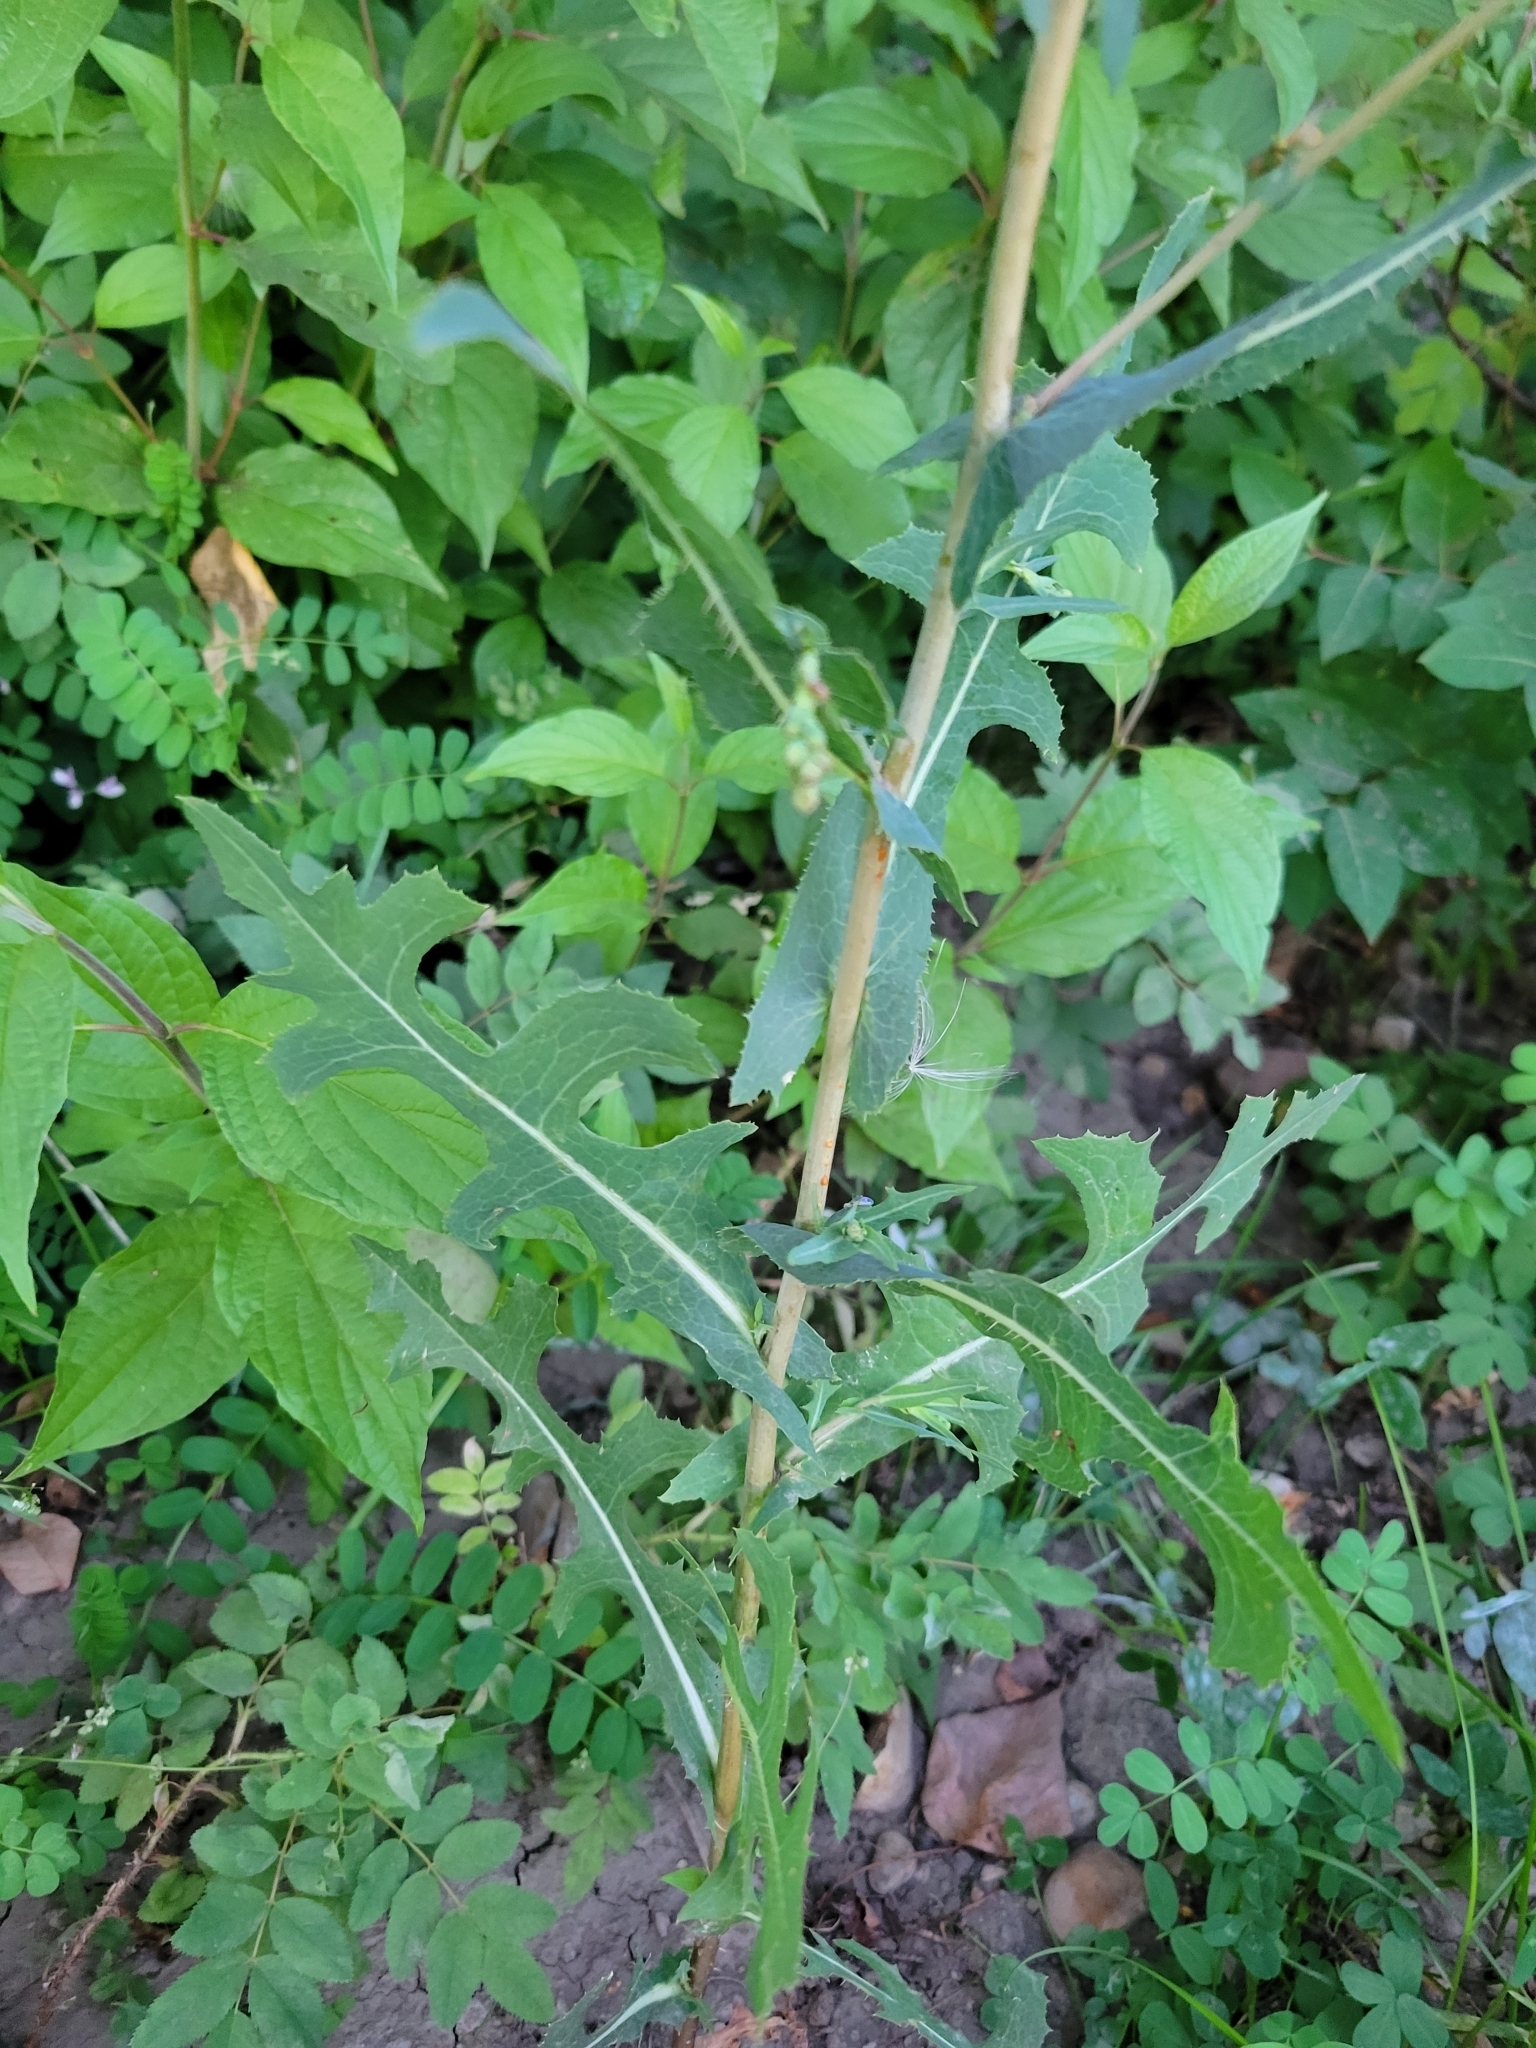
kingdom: Plantae
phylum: Tracheophyta
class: Magnoliopsida
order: Asterales
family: Asteraceae
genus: Lactuca
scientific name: Lactuca serriola
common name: Prickly lettuce
